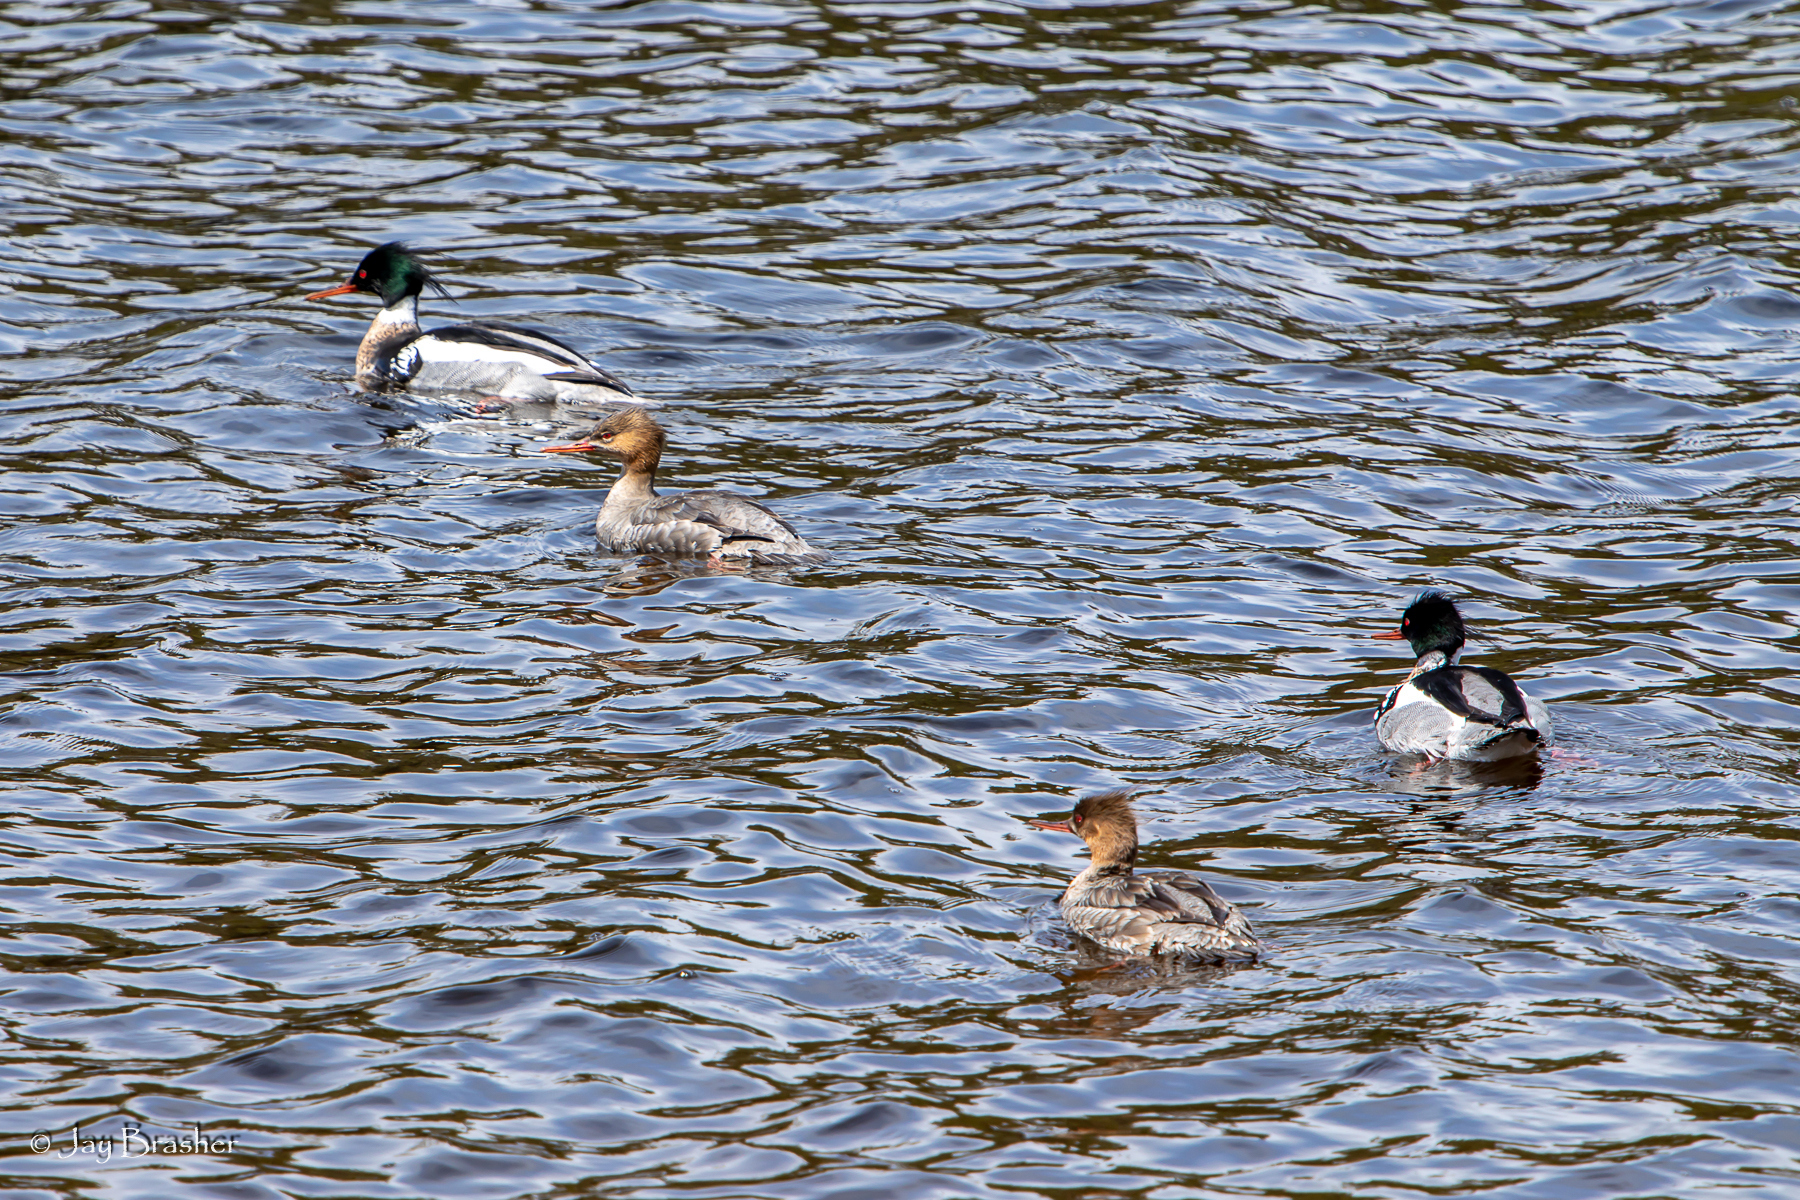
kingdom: Animalia
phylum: Chordata
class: Aves
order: Anseriformes
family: Anatidae
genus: Mergus
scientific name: Mergus serrator
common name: Red-breasted merganser
